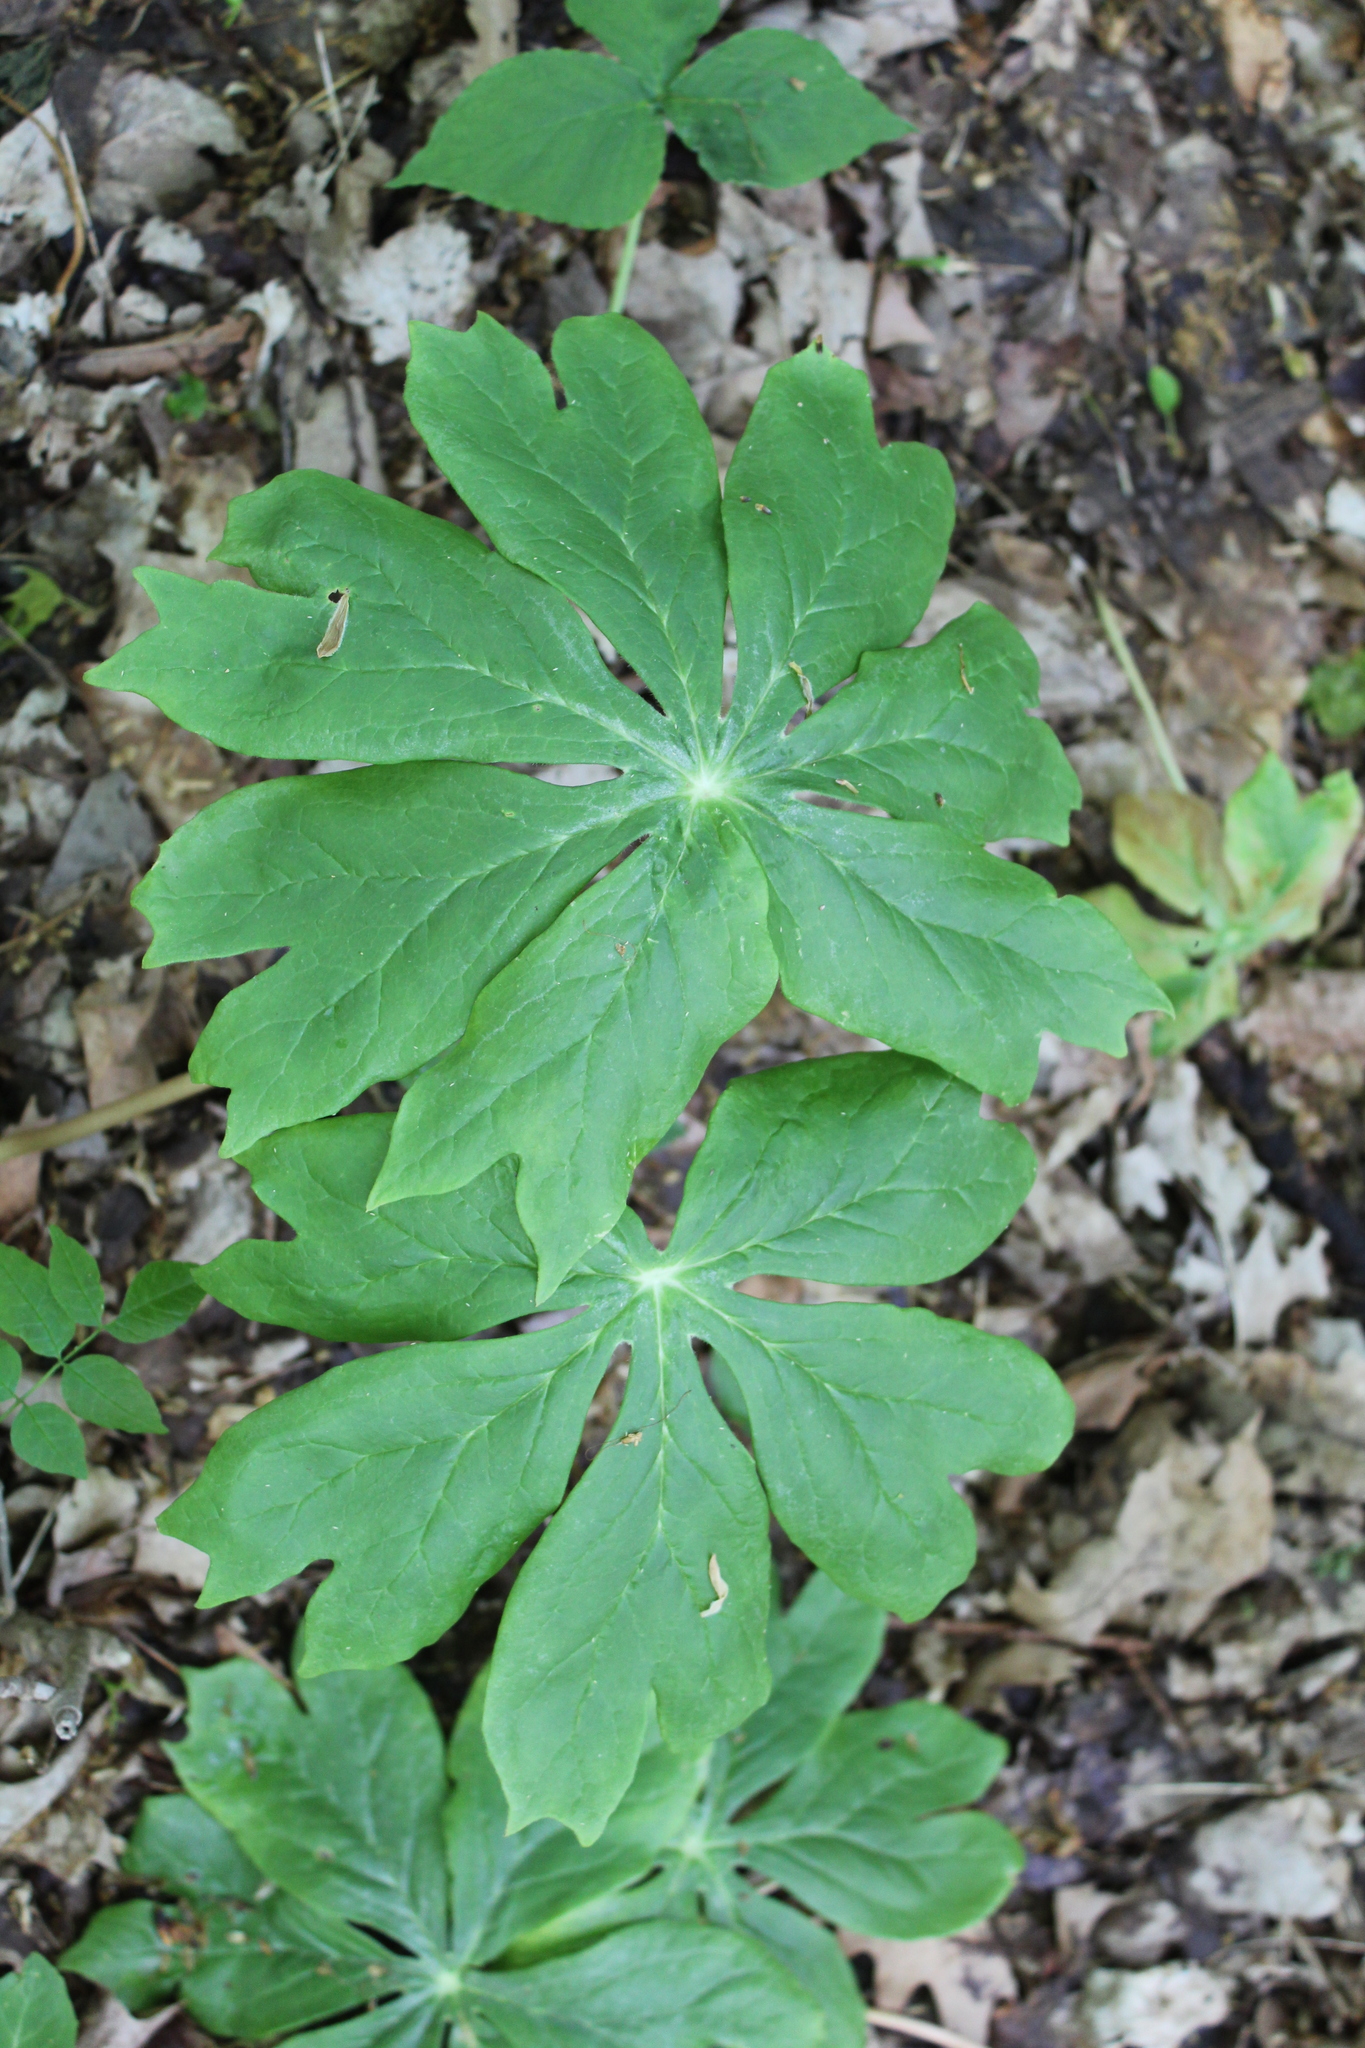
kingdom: Plantae
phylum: Tracheophyta
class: Magnoliopsida
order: Ranunculales
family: Berberidaceae
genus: Podophyllum
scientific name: Podophyllum peltatum
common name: Wild mandrake
